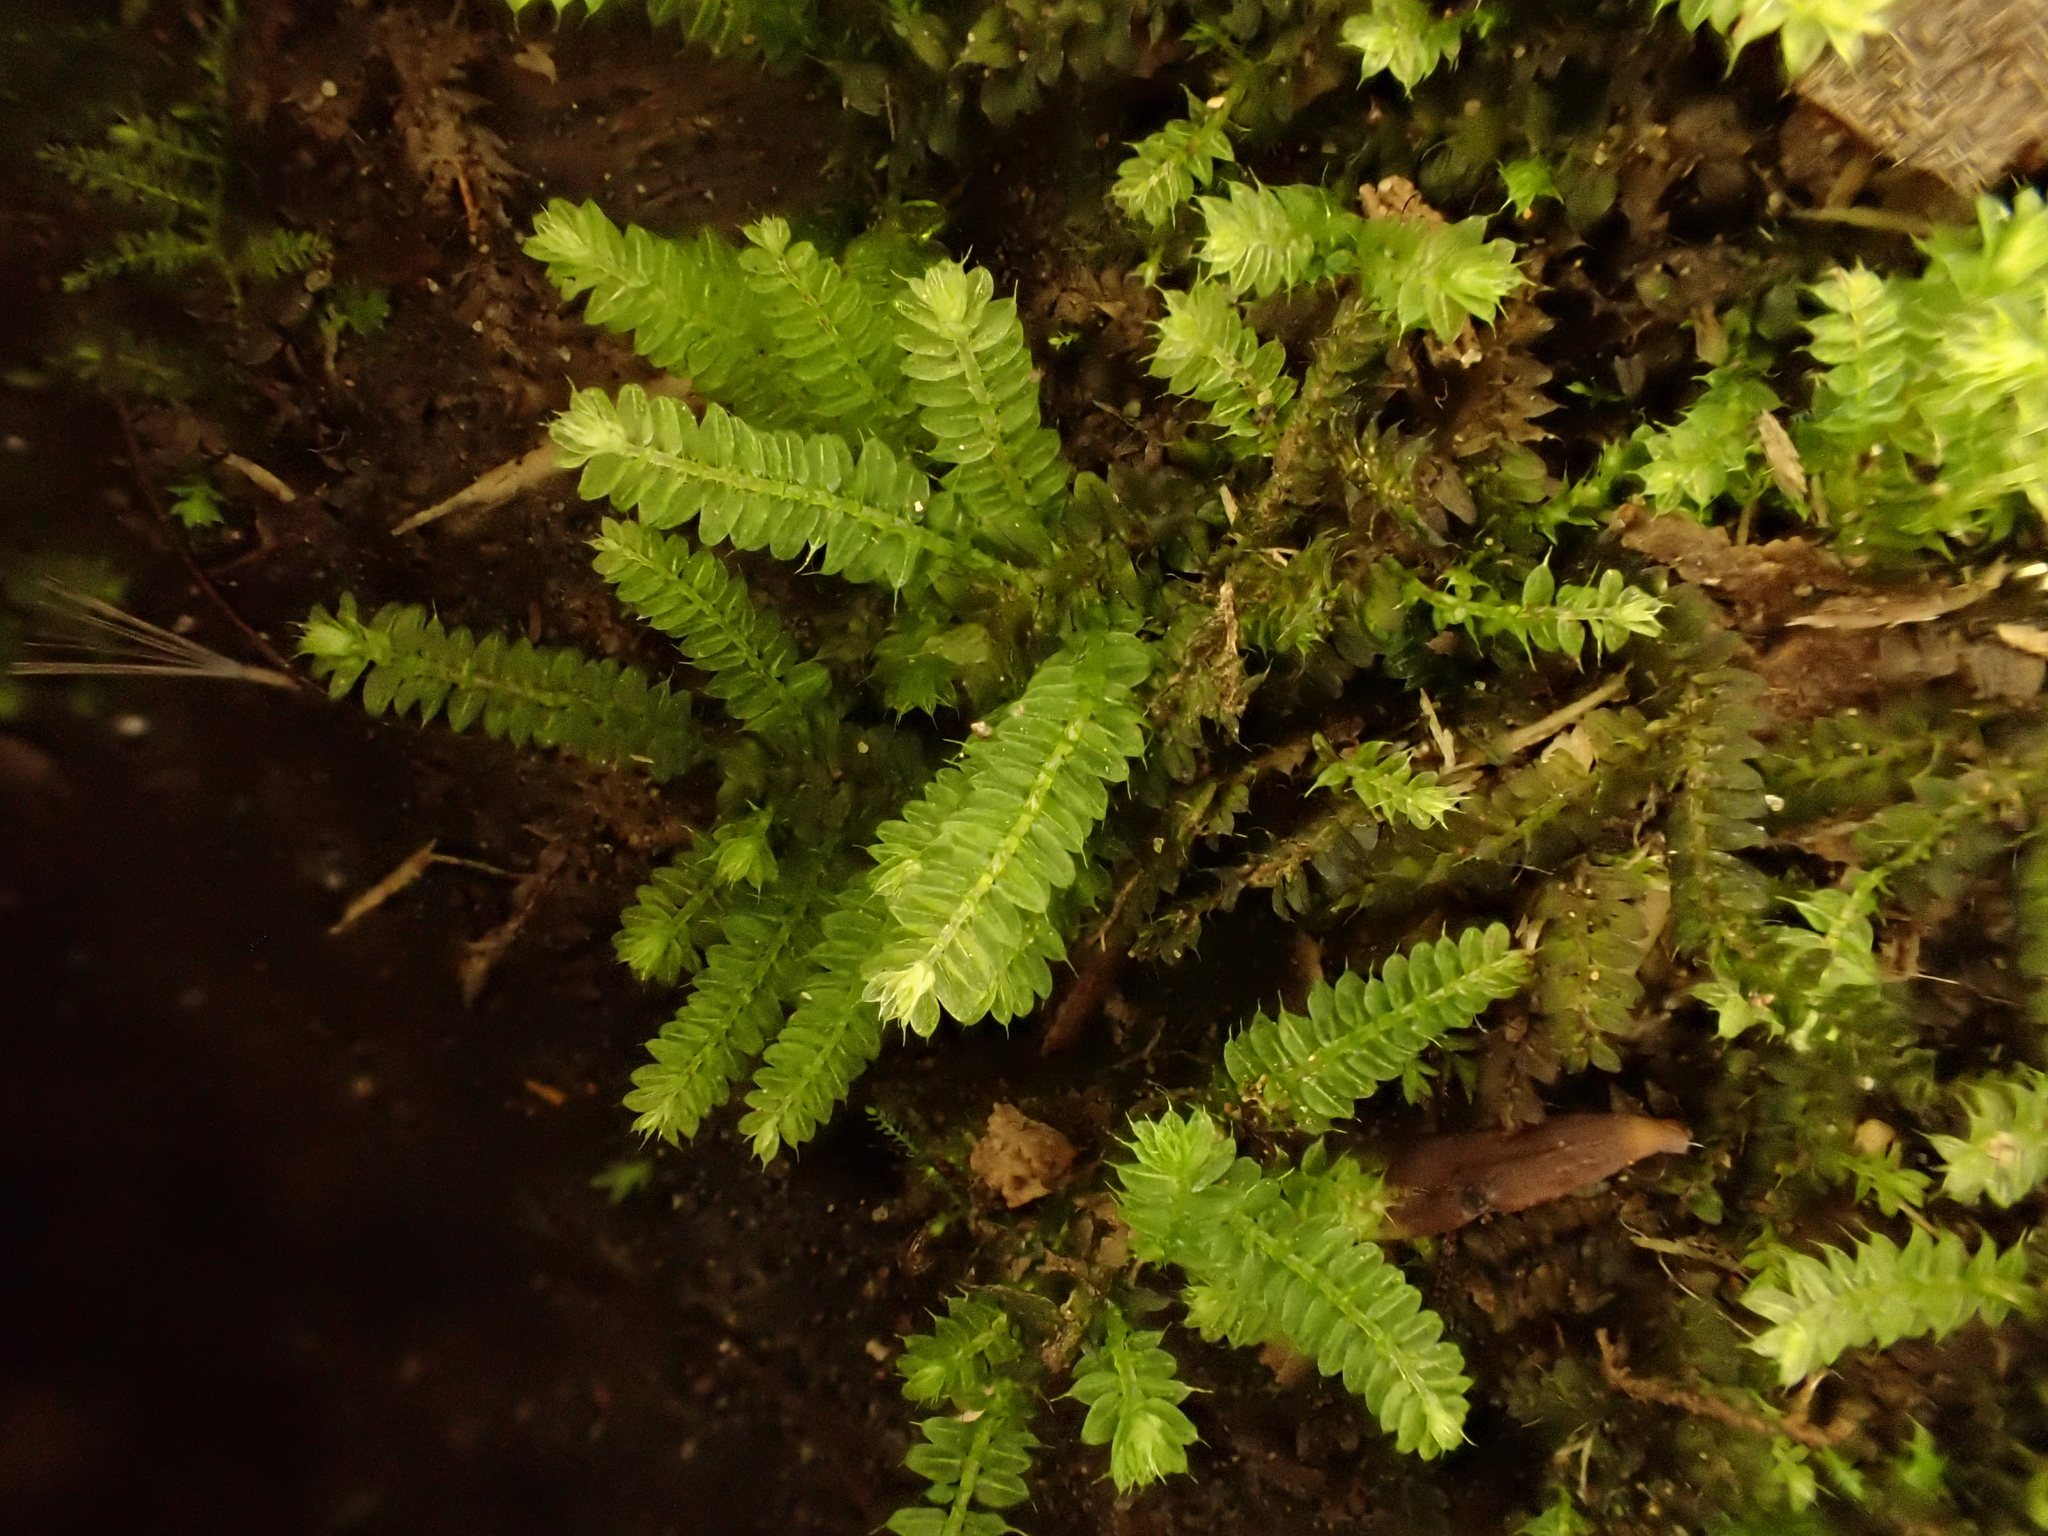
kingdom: Plantae
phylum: Bryophyta
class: Bryopsida
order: Orthodontiales
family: Orthodontiaceae
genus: Hymenodon
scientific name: Hymenodon pilifer
